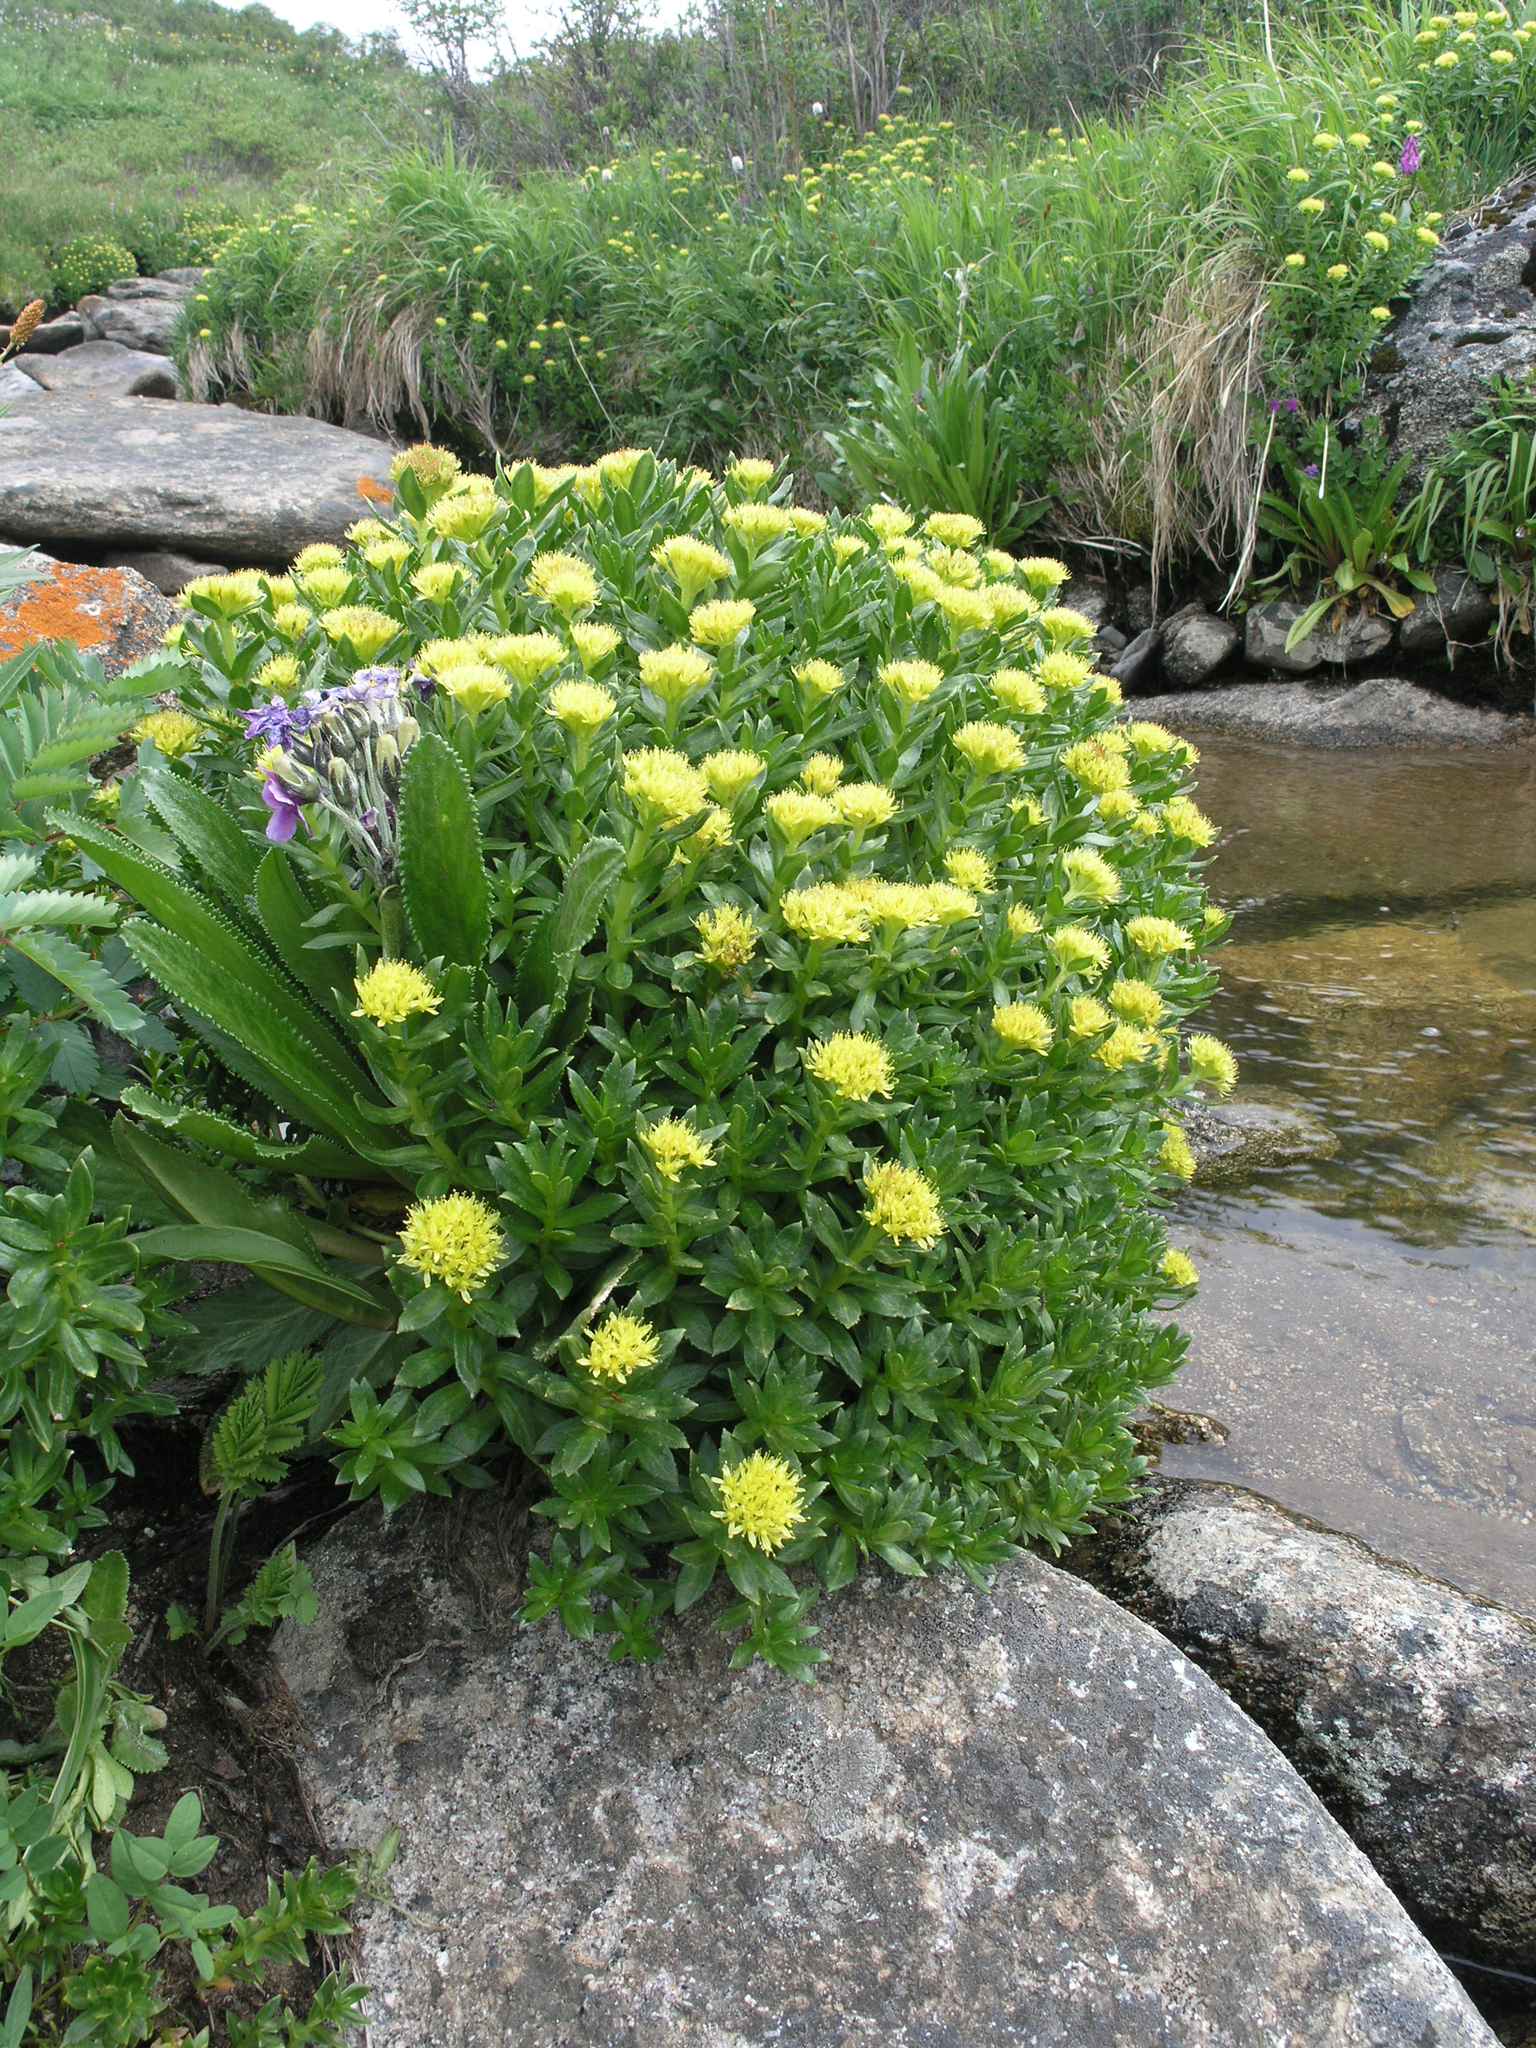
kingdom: Plantae
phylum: Tracheophyta
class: Magnoliopsida
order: Saxifragales
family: Crassulaceae
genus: Rhodiola
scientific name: Rhodiola rosea
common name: Roseroot
